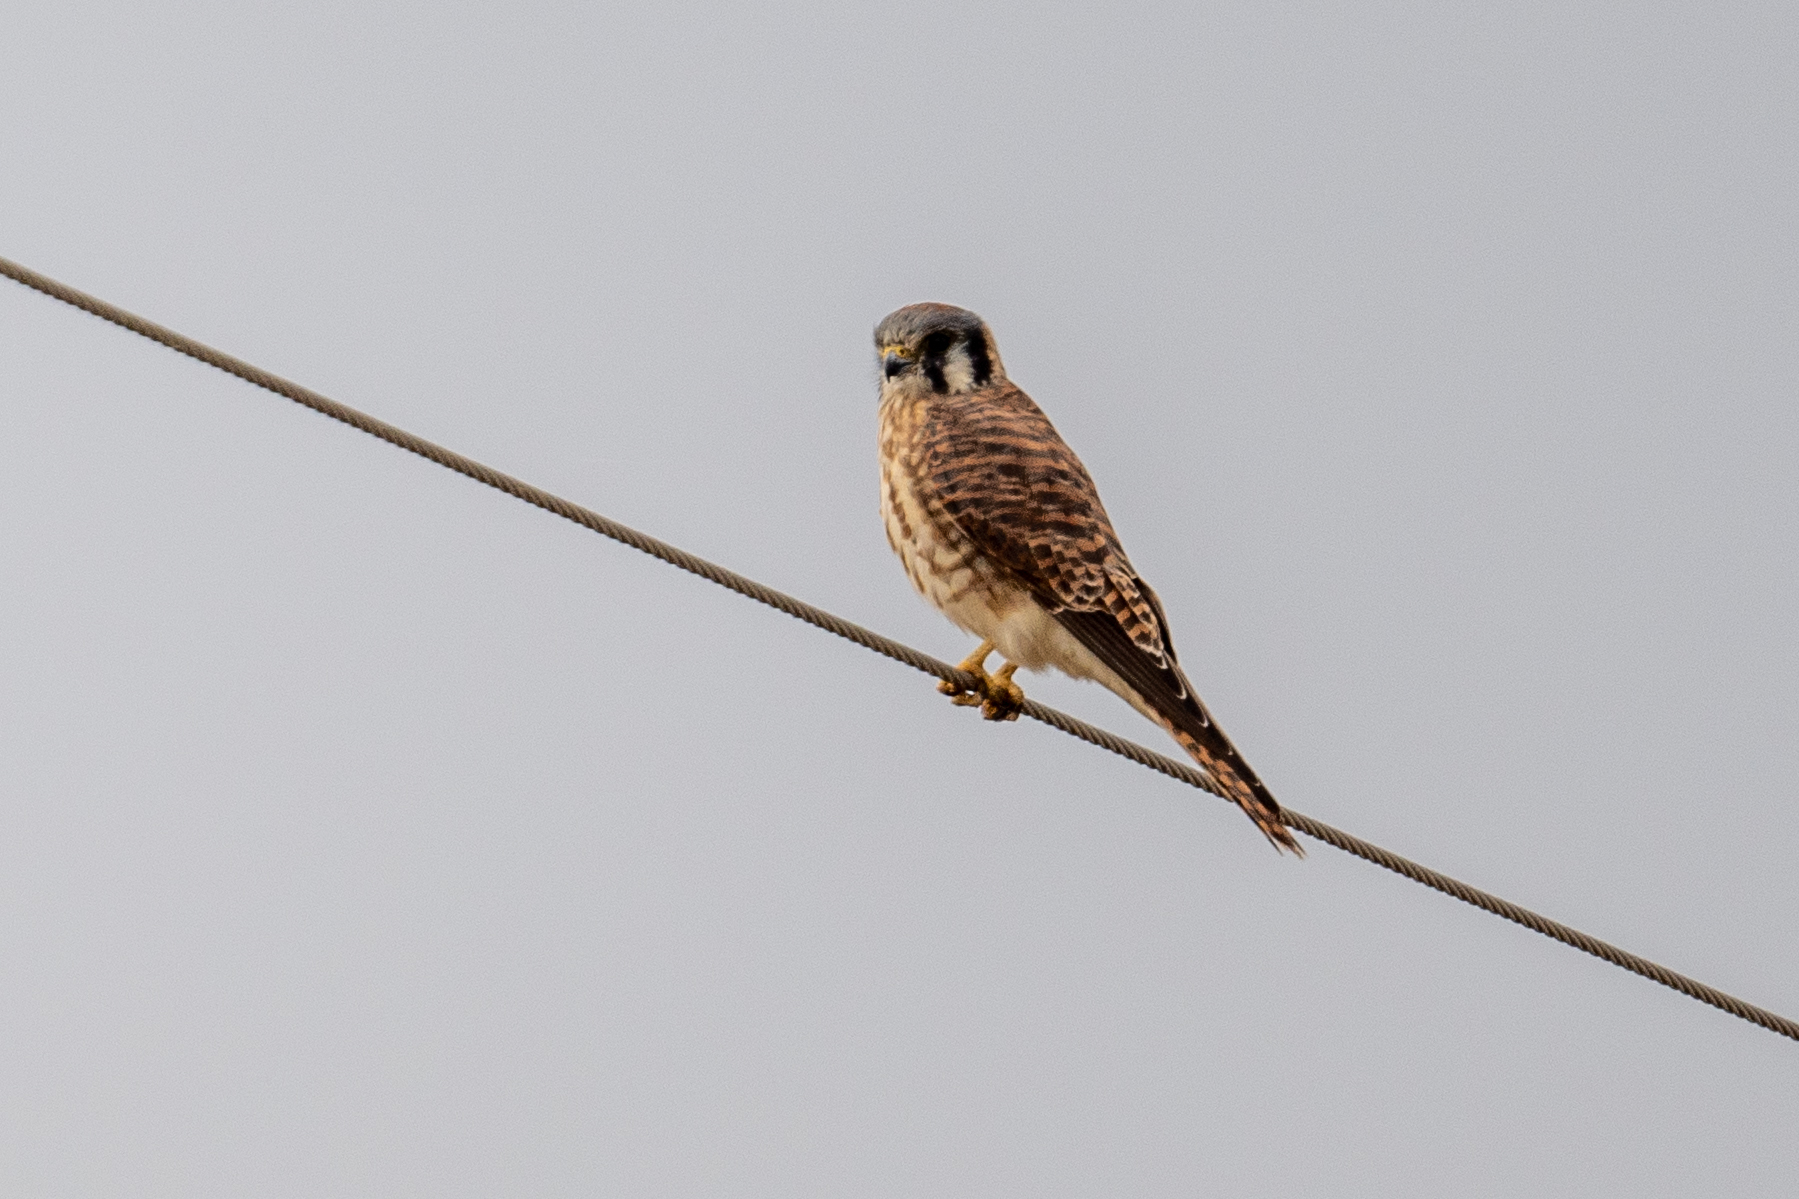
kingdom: Animalia
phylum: Chordata
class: Aves
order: Falconiformes
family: Falconidae
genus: Falco
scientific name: Falco sparverius
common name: American kestrel
